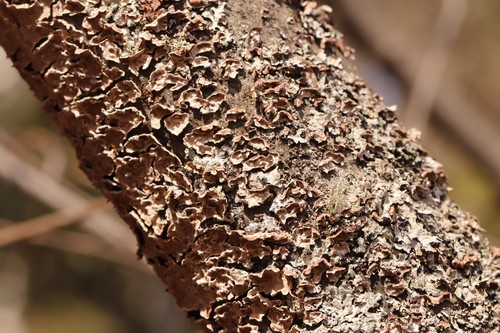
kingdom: Fungi
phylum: Basidiomycota
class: Agaricomycetes
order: Hymenochaetales
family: Hymenochaetaceae
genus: Hydnoporia
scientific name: Hydnoporia tabacina
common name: Willow glue
